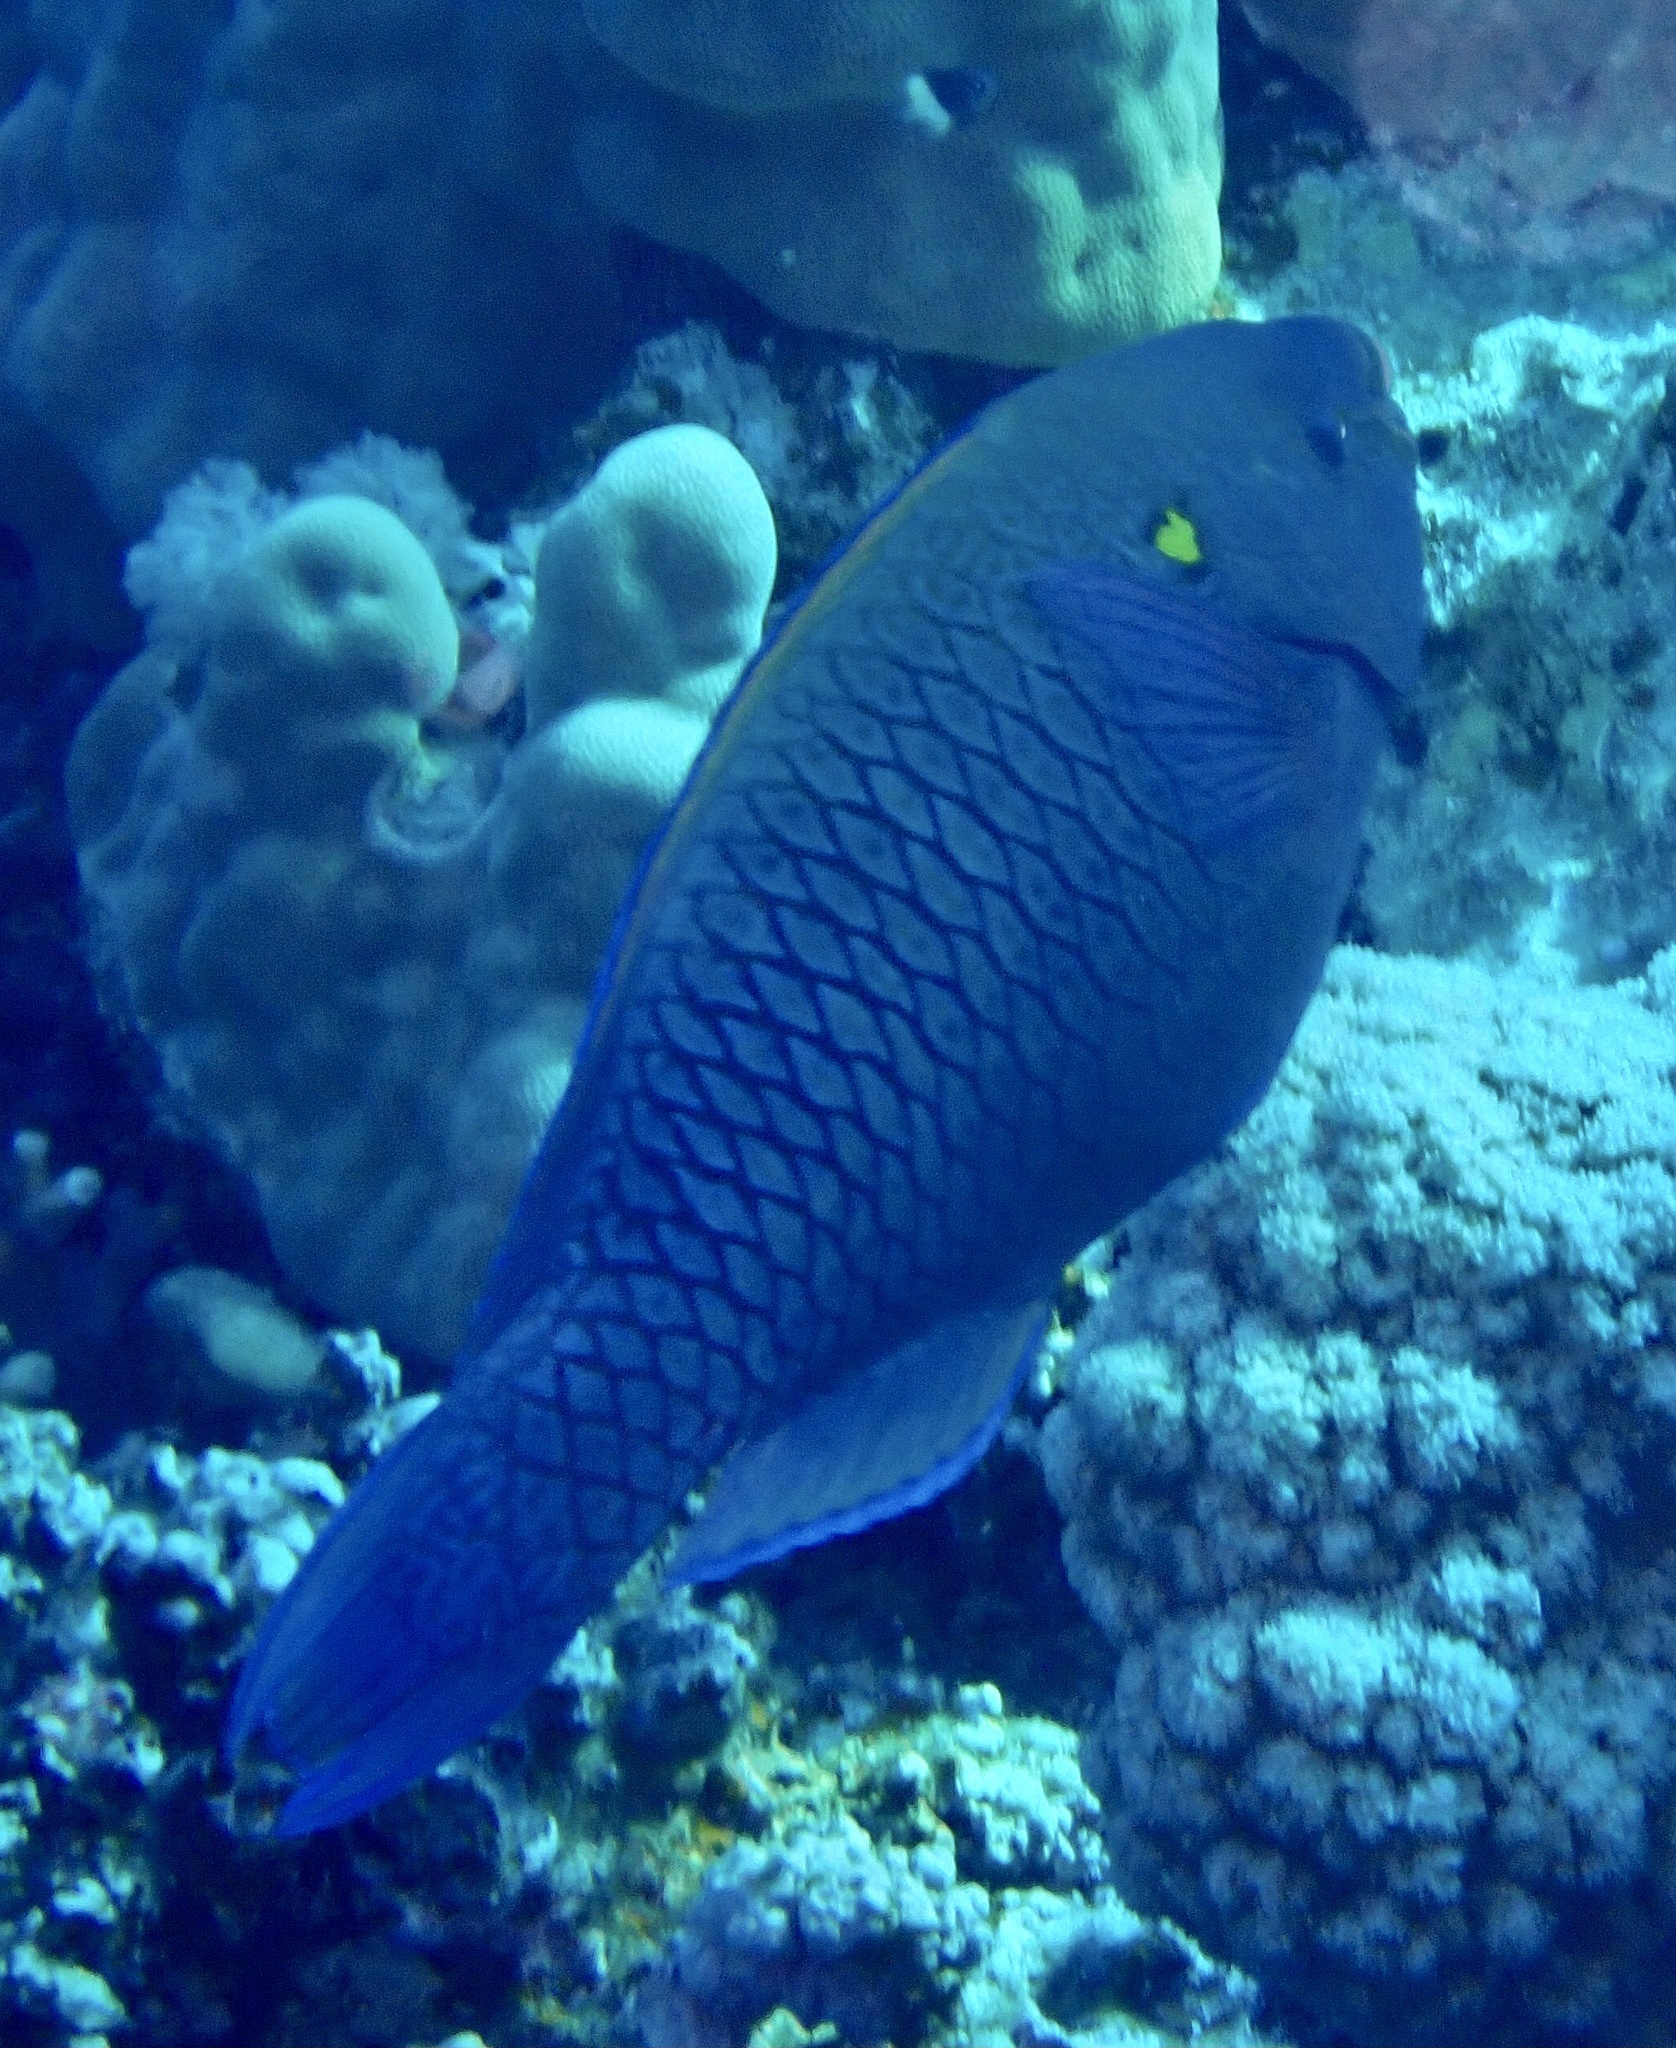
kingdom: Animalia
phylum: Chordata
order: Perciformes
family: Scaridae
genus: Scarus
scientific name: Scarus niger
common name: Dusky parrotfish
